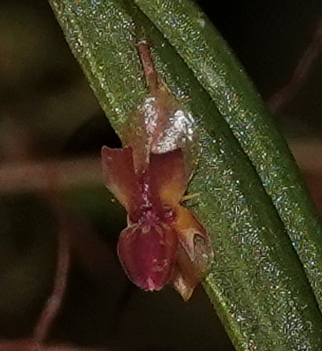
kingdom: Plantae
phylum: Tracheophyta
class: Liliopsida
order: Asparagales
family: Orchidaceae
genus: Lepanthes
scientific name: Lepanthes mucronata
